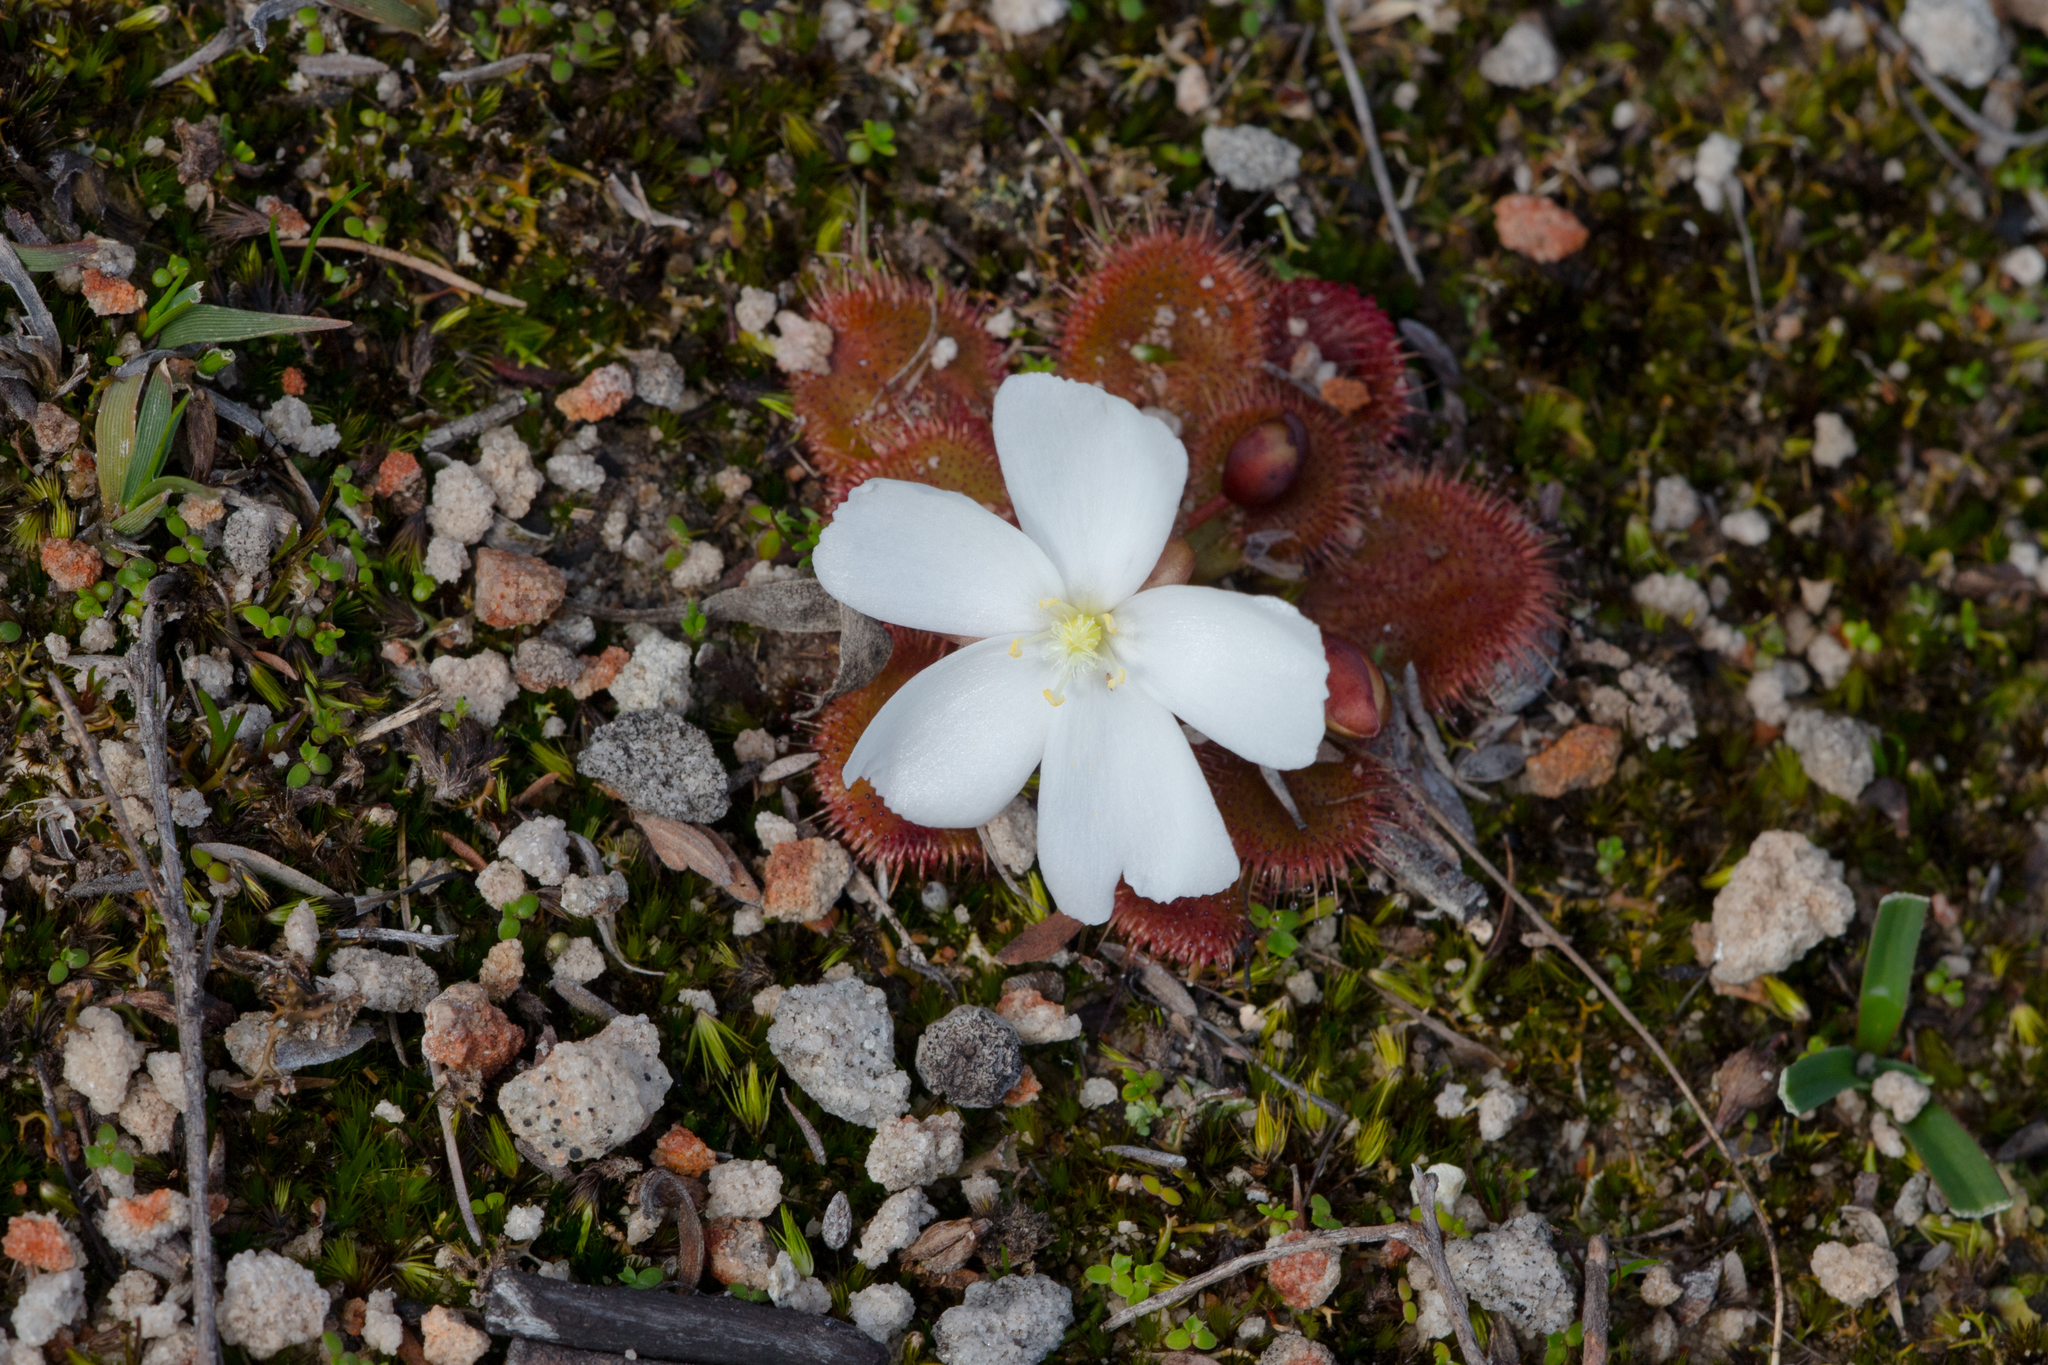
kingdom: Plantae
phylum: Tracheophyta
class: Magnoliopsida
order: Caryophyllales
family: Droseraceae
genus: Drosera
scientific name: Drosera whittakeri
